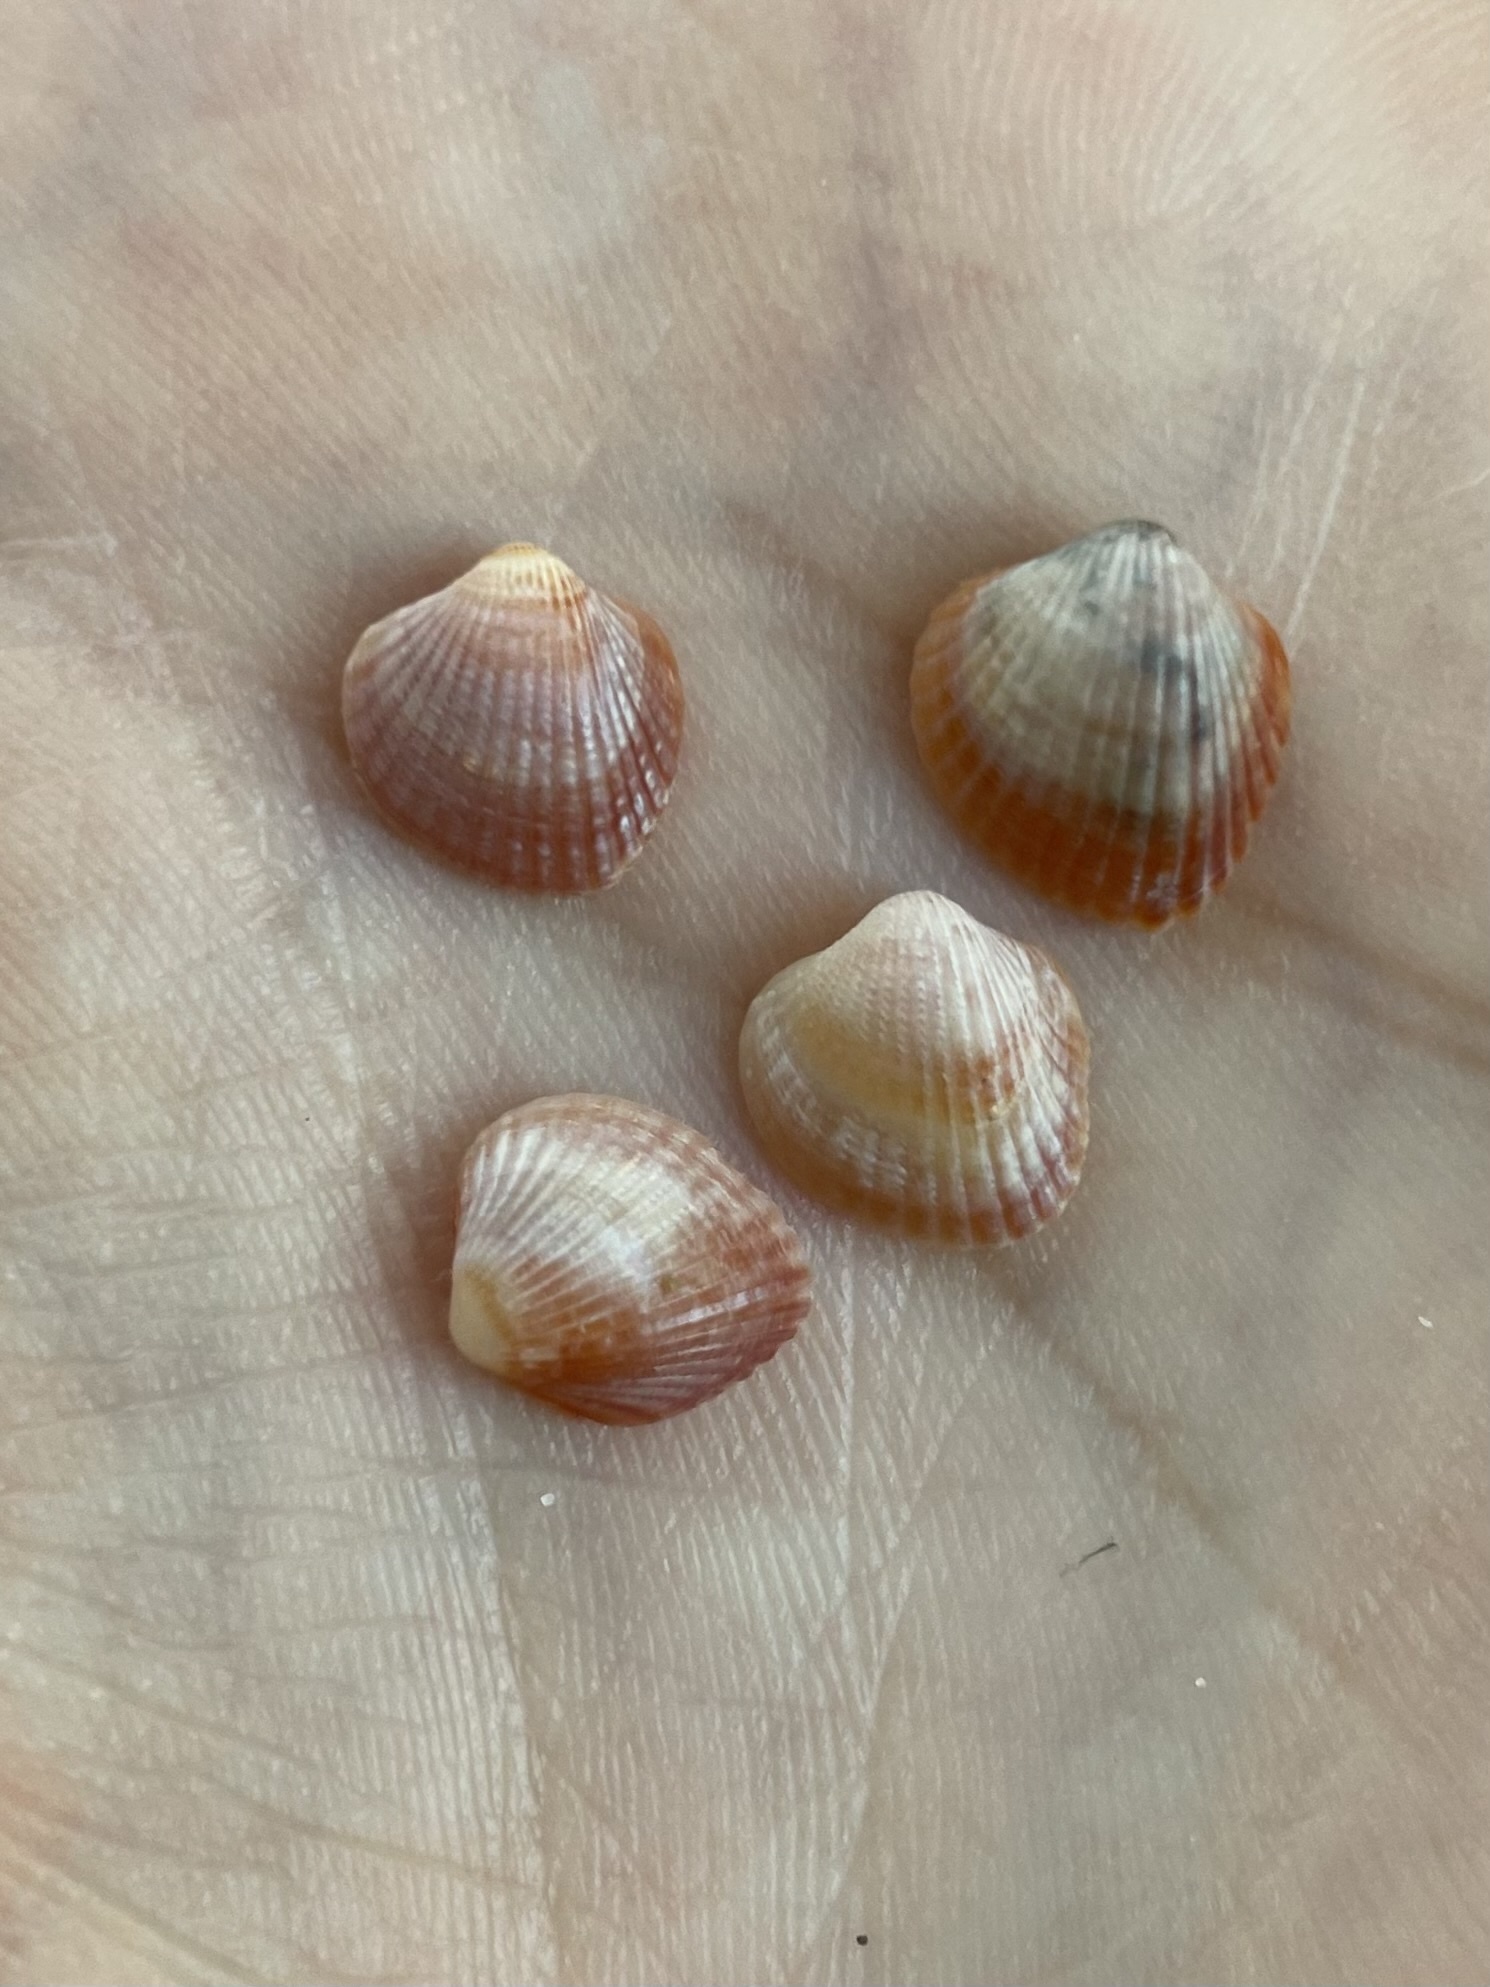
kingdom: Animalia
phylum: Mollusca
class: Bivalvia
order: Cardiida
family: Cardiidae
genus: Parvicardium
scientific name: Parvicardium exiguum
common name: Little cockle
